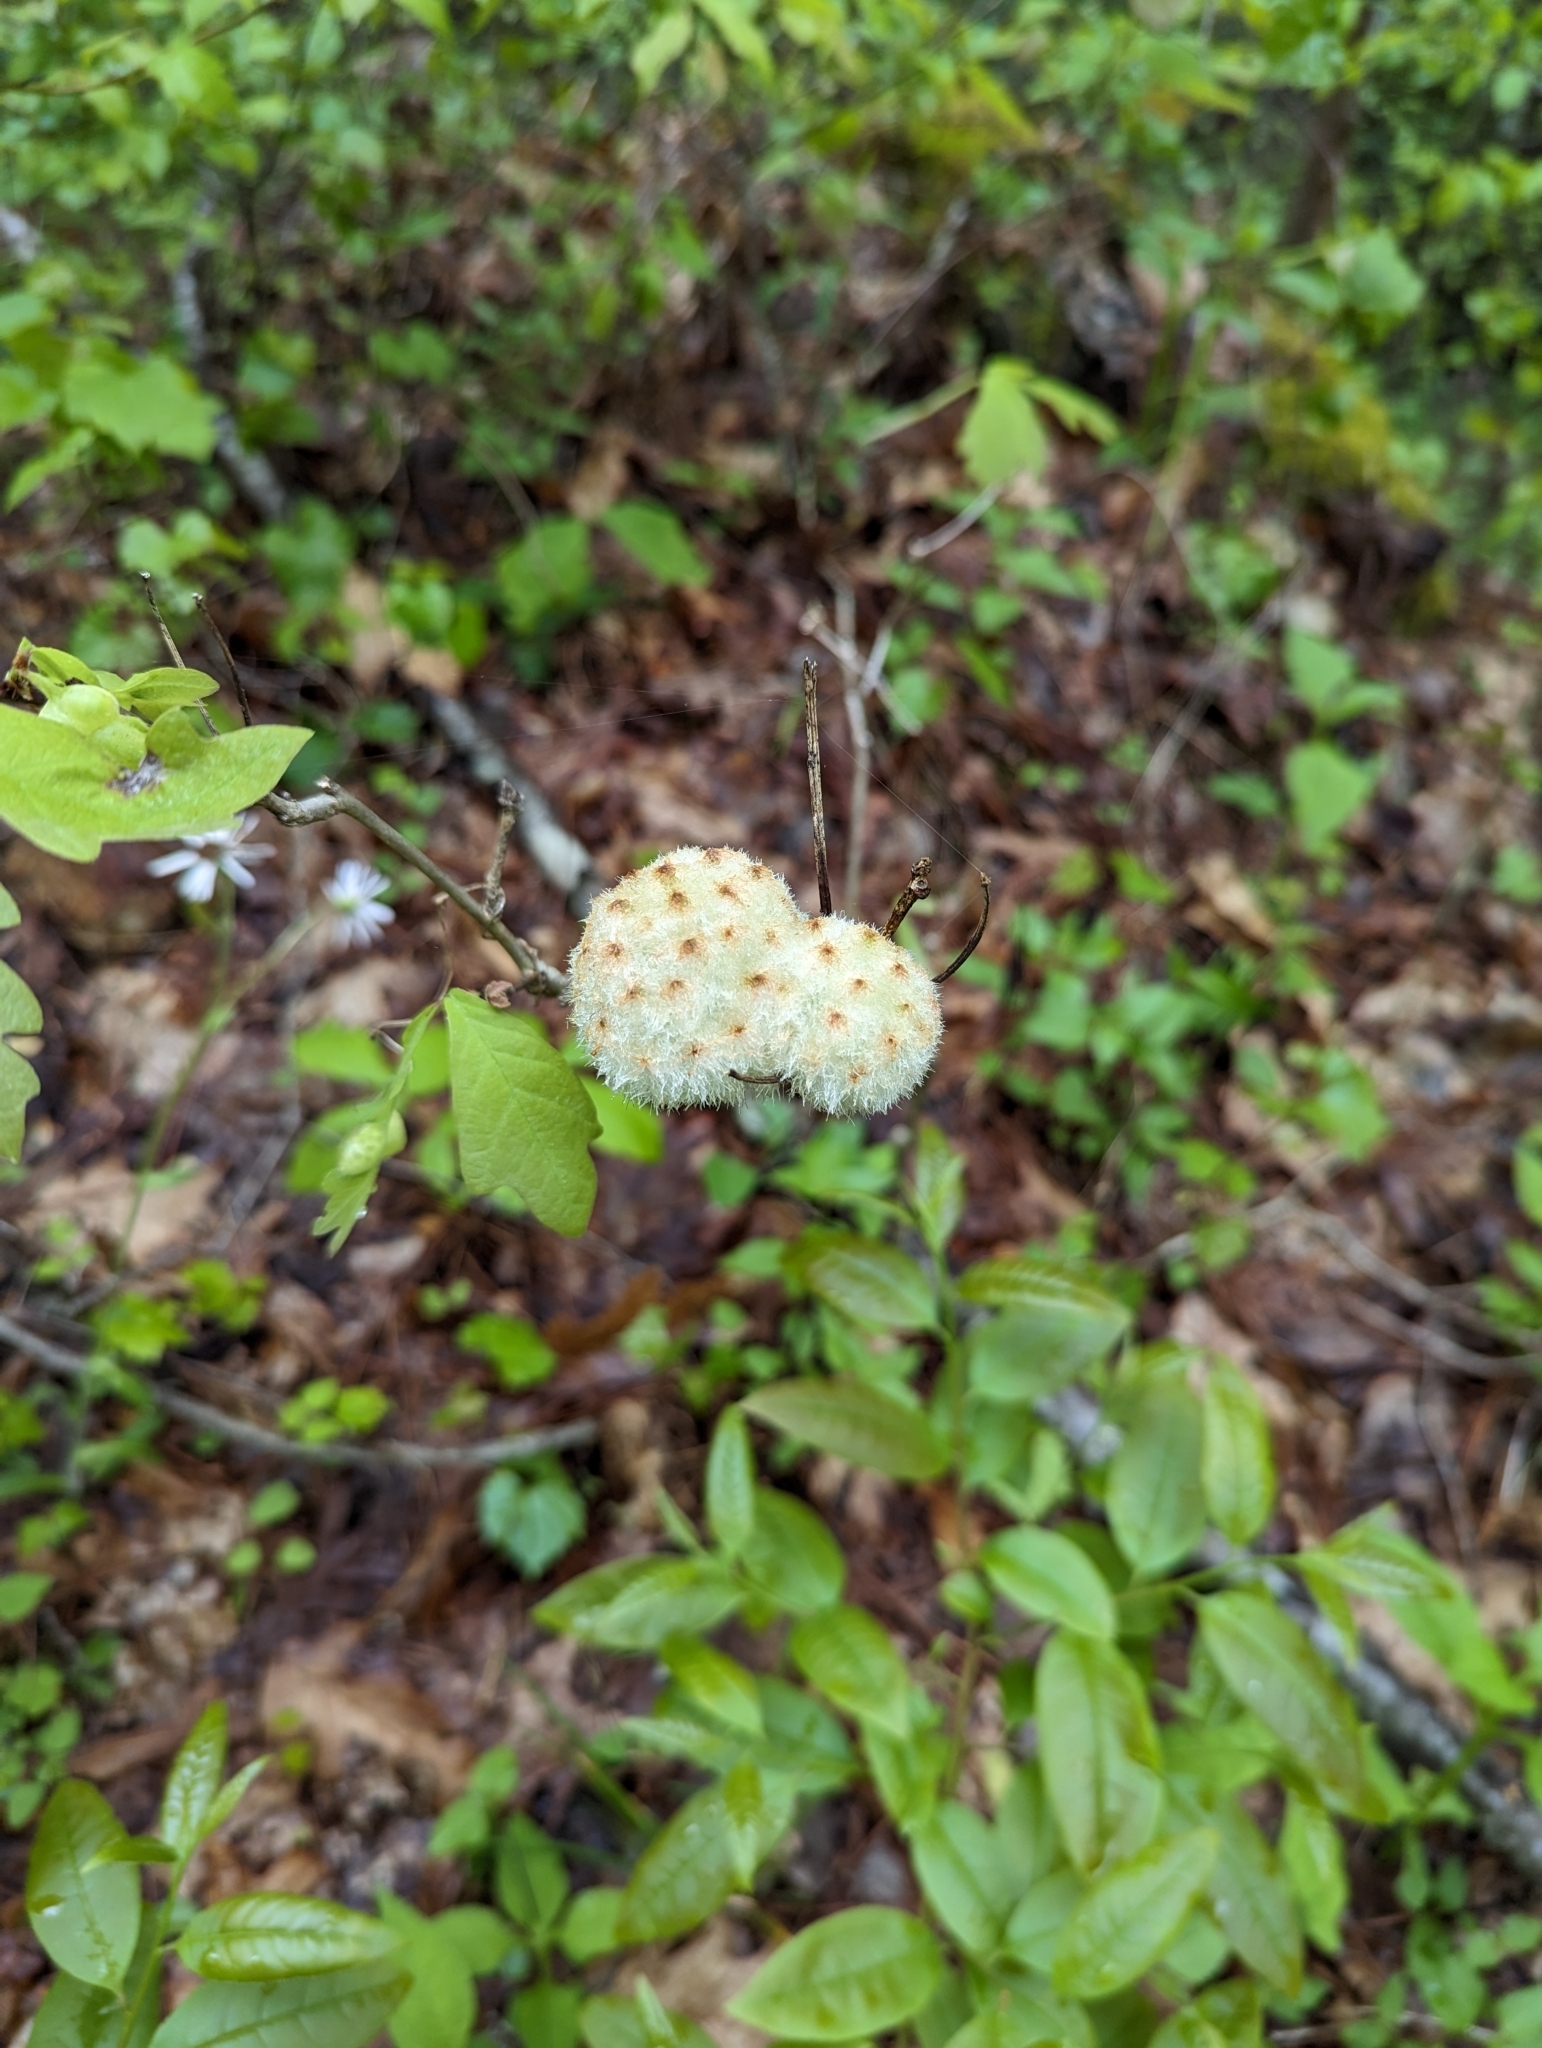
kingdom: Animalia
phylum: Arthropoda
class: Insecta
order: Hymenoptera
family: Cynipidae
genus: Callirhytis
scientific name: Callirhytis
